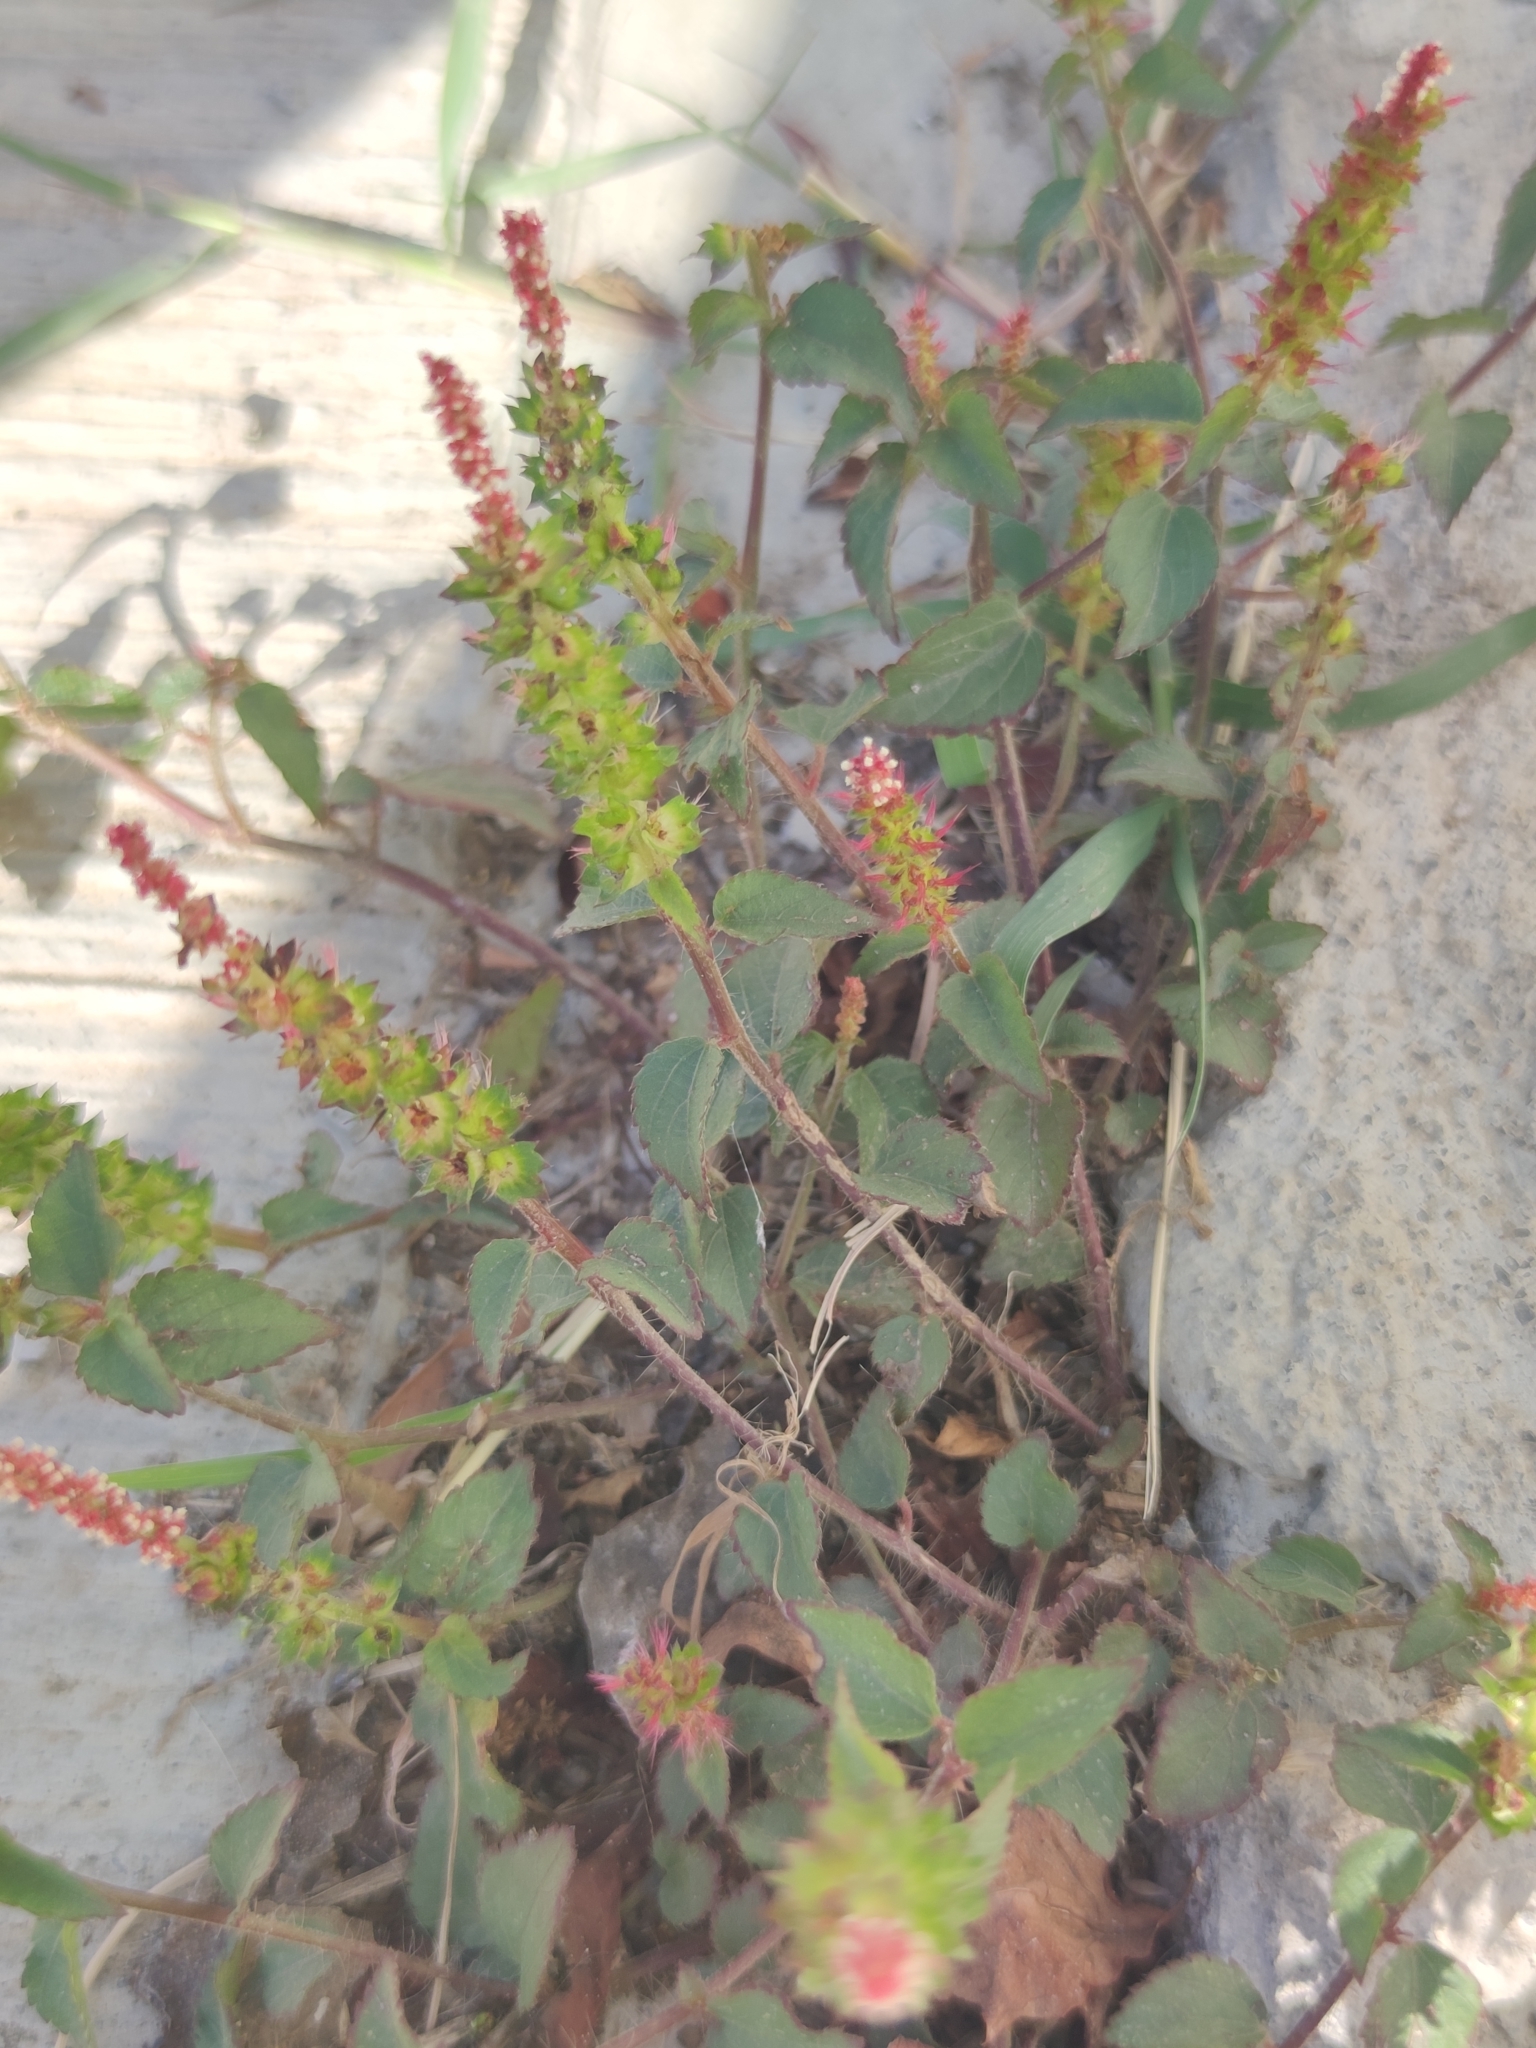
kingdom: Plantae
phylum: Tracheophyta
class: Magnoliopsida
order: Malpighiales
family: Euphorbiaceae
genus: Acalypha
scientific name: Acalypha phleoides
